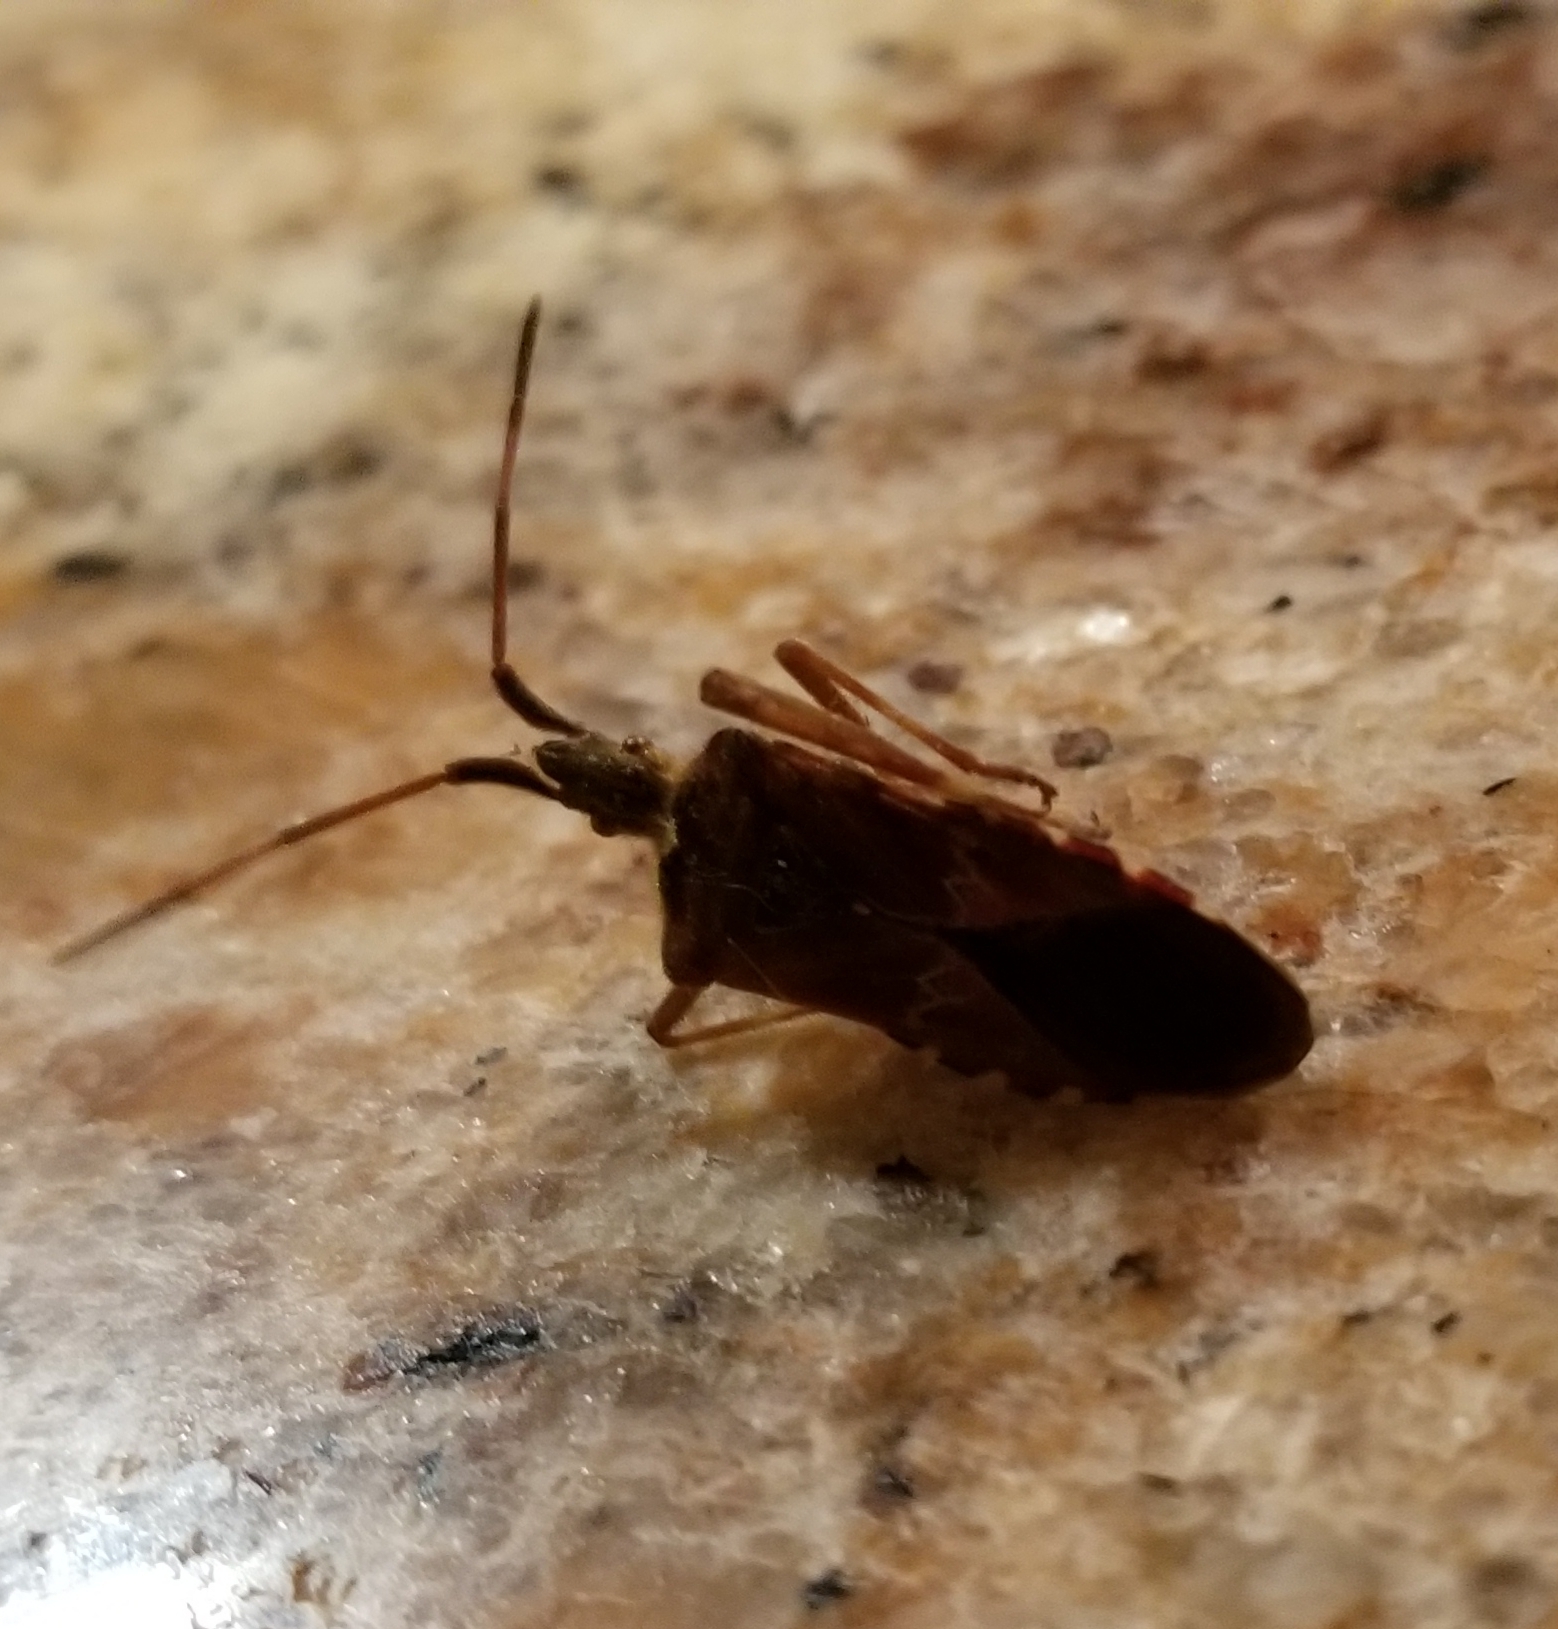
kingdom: Animalia
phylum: Arthropoda
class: Insecta
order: Hemiptera
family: Coreidae
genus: Leptoglossus
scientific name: Leptoglossus occidentalis
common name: Western conifer-seed bug
